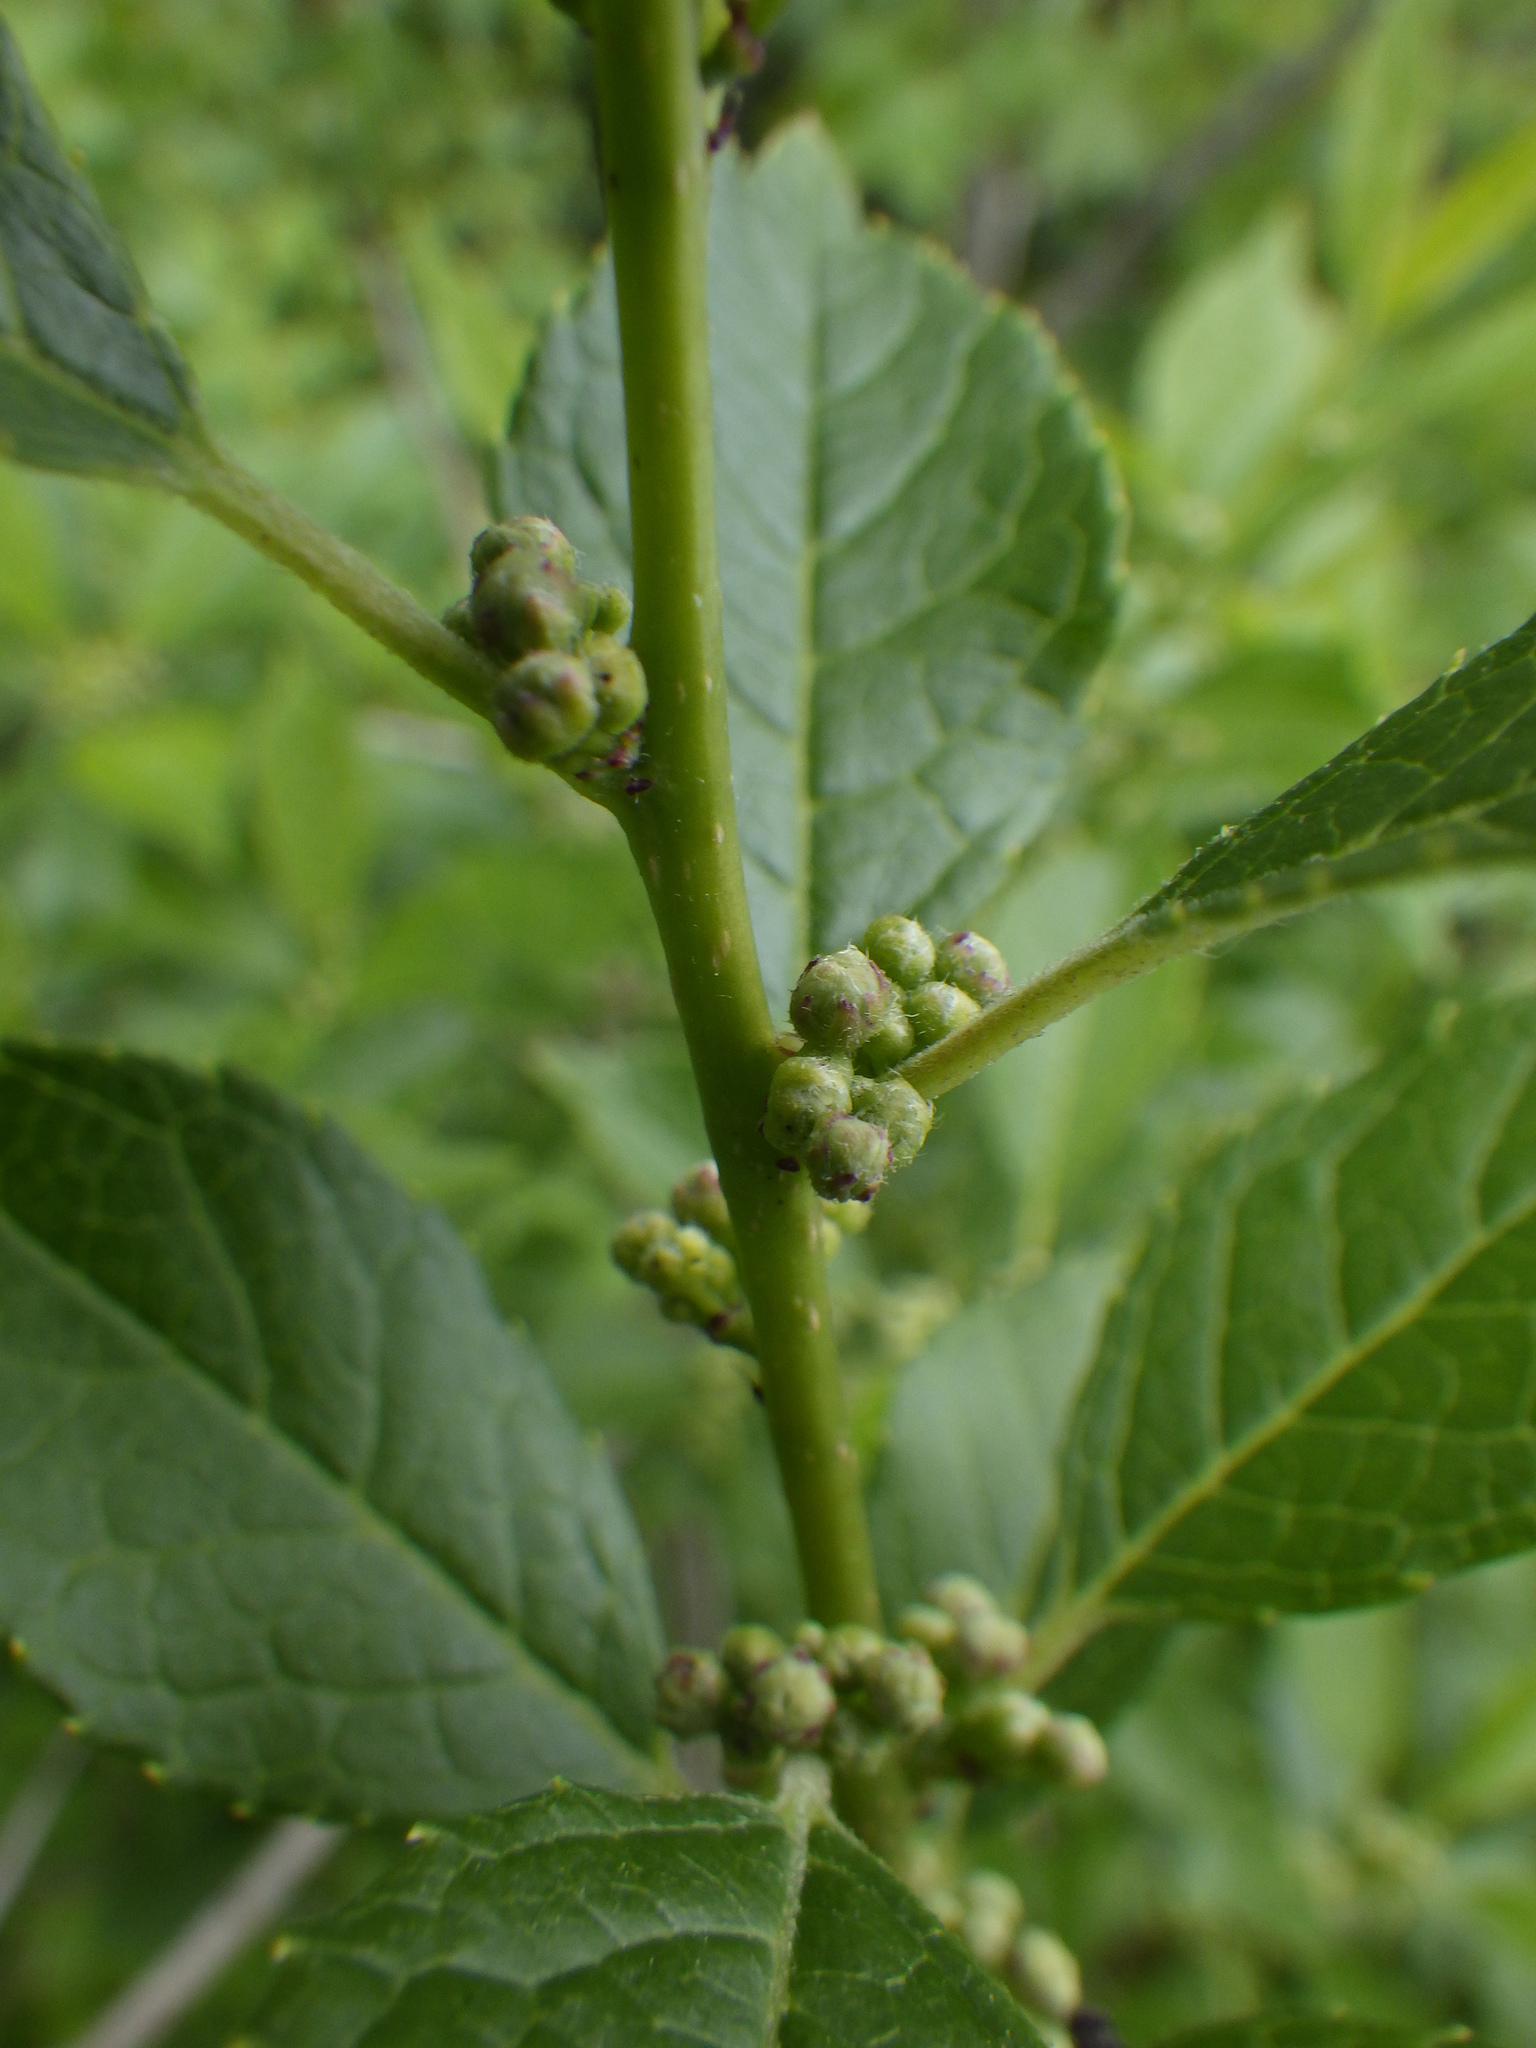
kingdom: Plantae
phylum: Tracheophyta
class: Magnoliopsida
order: Aquifoliales
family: Aquifoliaceae
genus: Ilex
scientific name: Ilex verticillata
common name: Virginia winterberry
